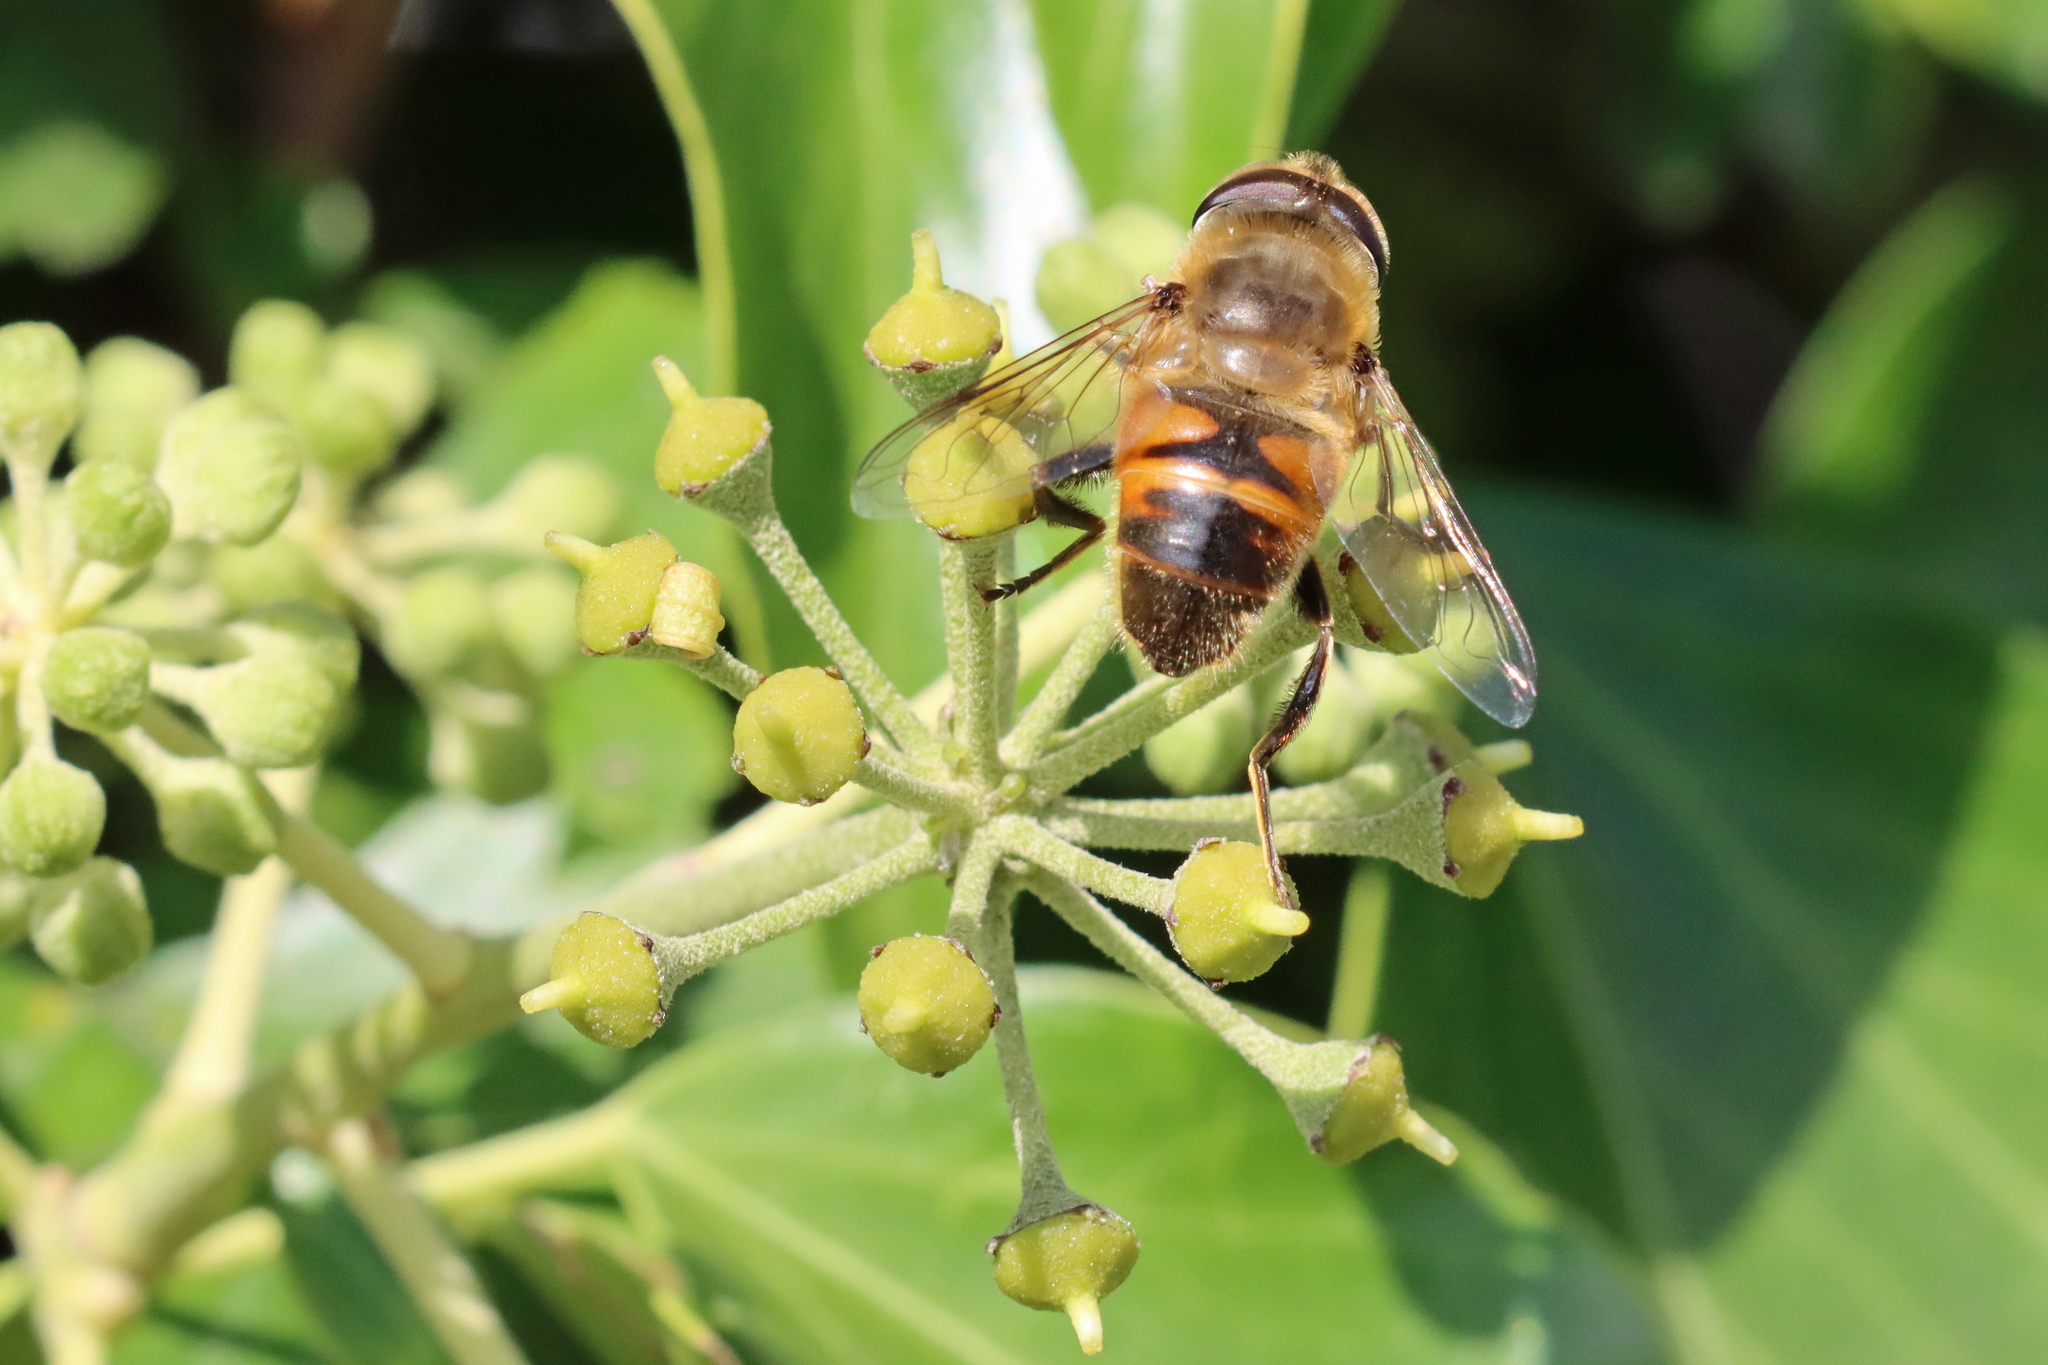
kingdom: Animalia
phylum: Arthropoda
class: Insecta
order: Diptera
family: Syrphidae
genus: Eristalis
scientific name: Eristalis tenax
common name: Drone fly
